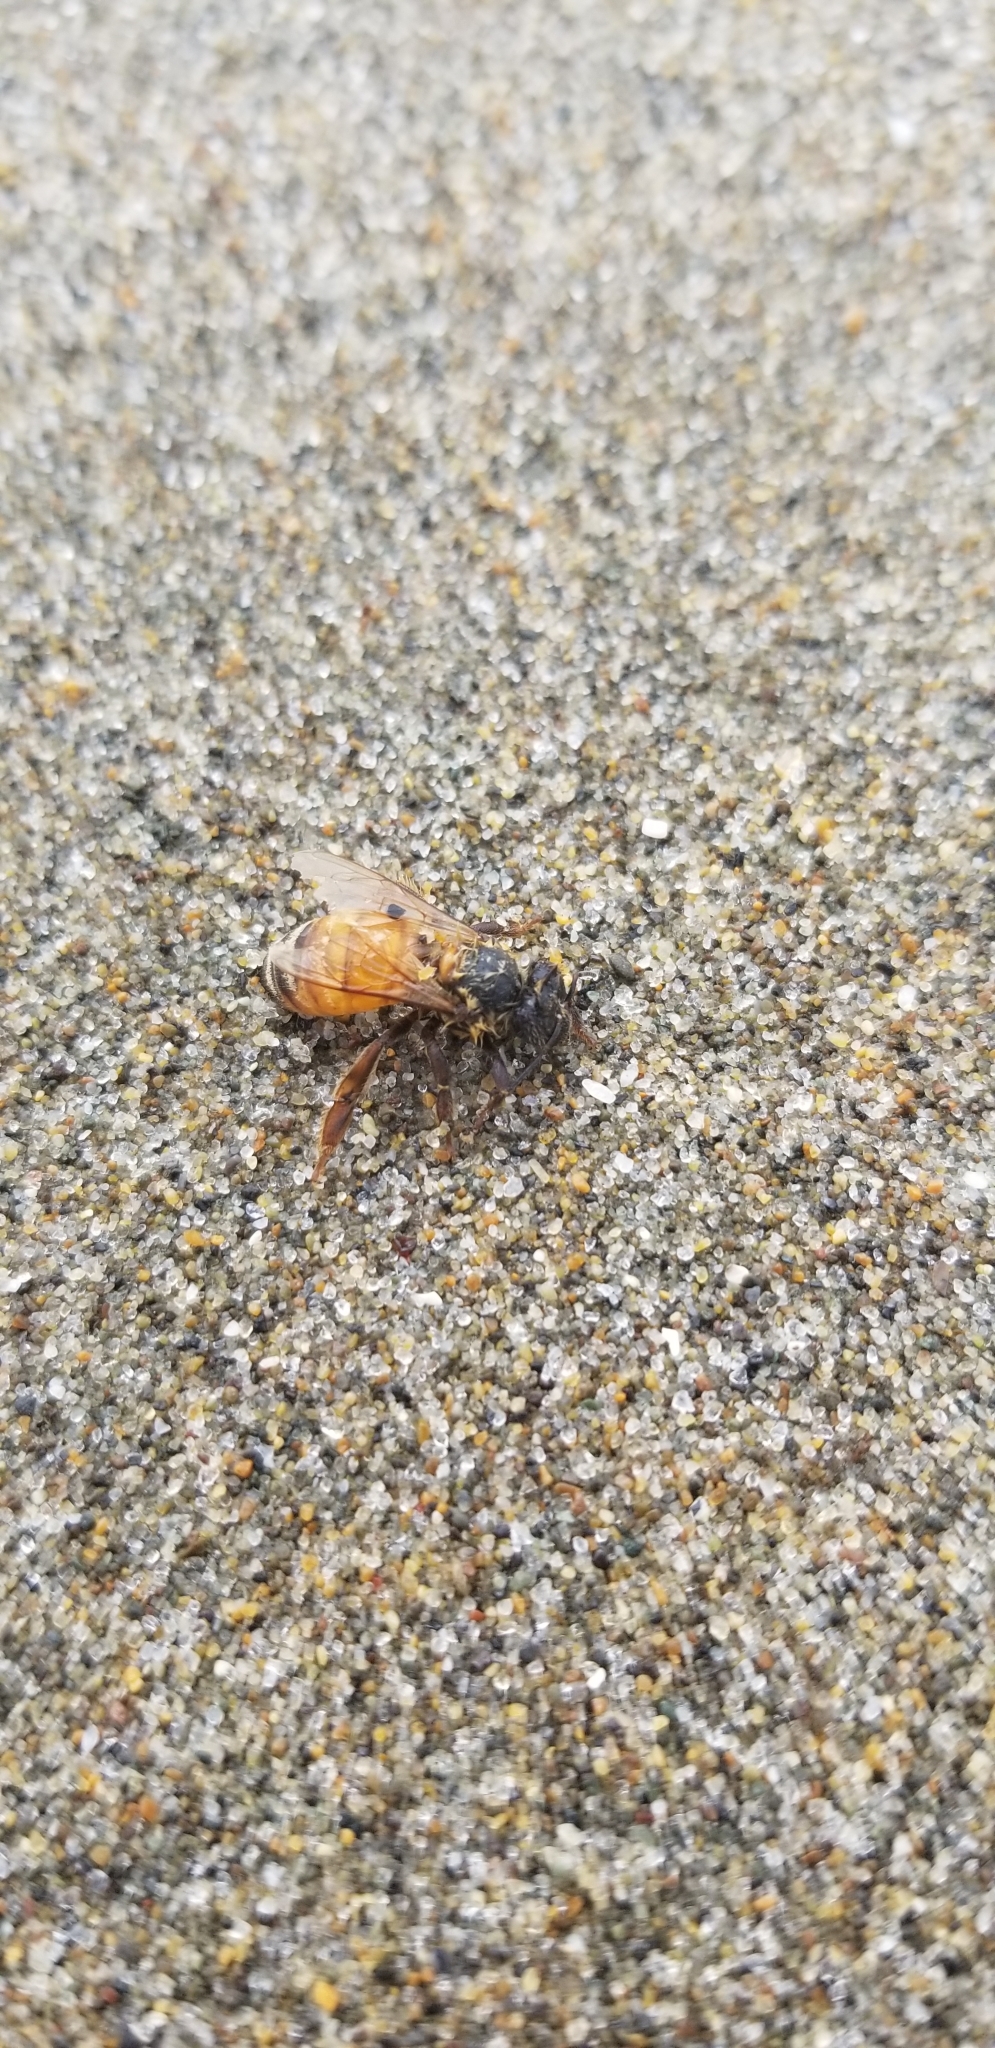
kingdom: Animalia
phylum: Arthropoda
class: Insecta
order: Hymenoptera
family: Apidae
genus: Apis
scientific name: Apis mellifera
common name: Honey bee
